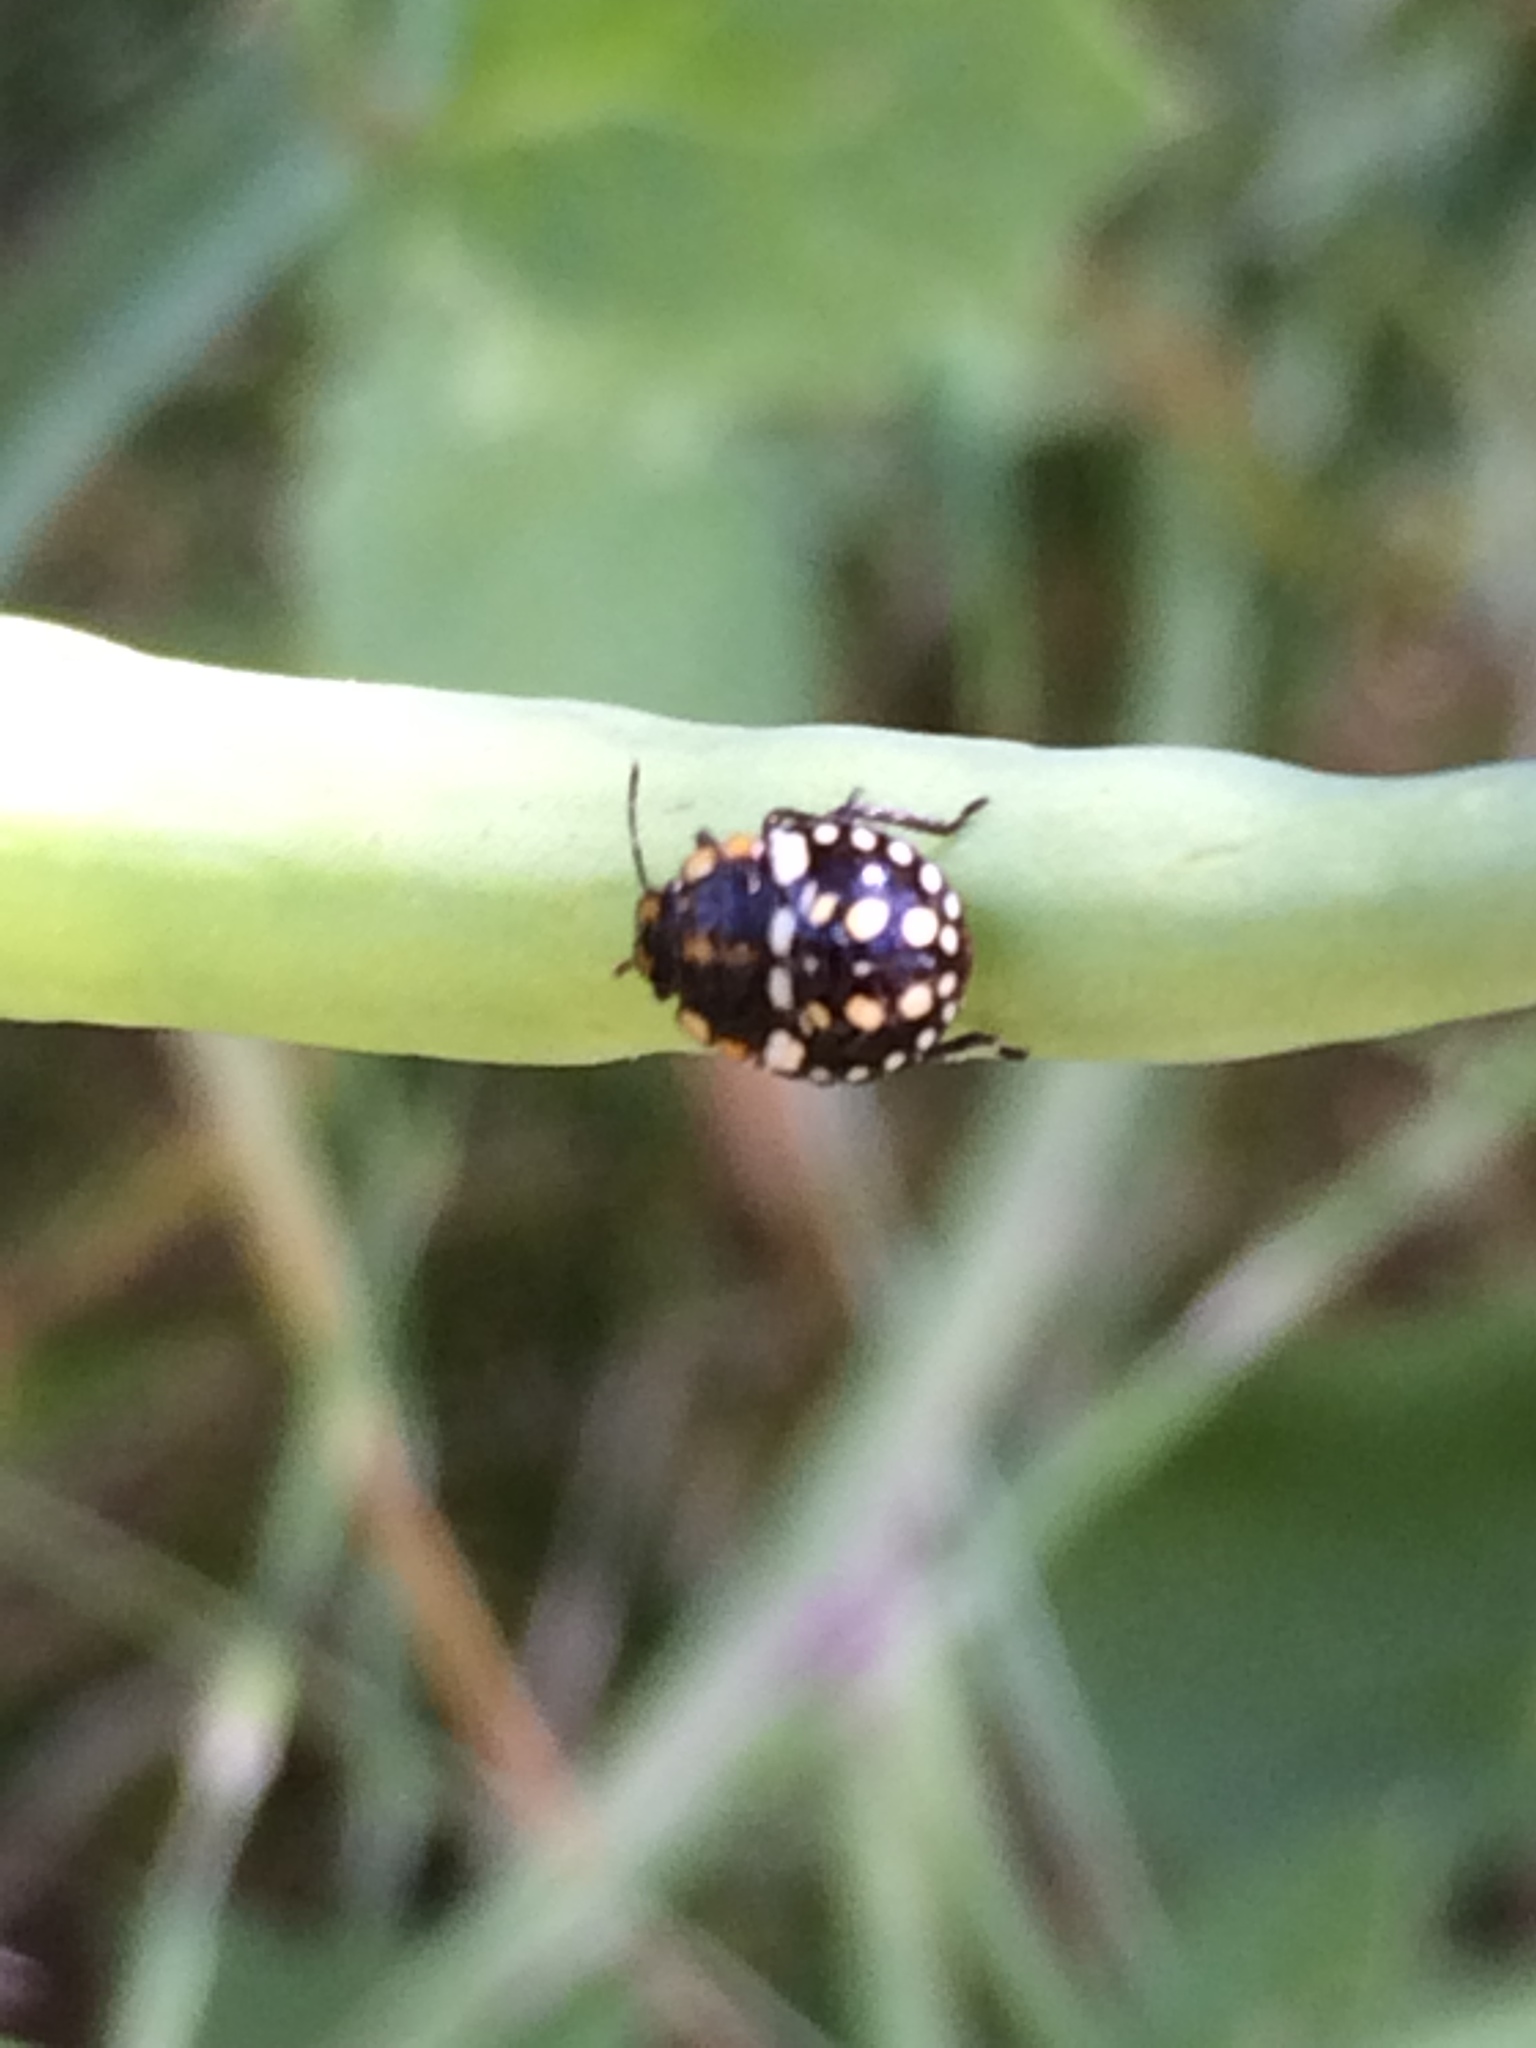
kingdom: Animalia
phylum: Arthropoda
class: Insecta
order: Hemiptera
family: Pentatomidae
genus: Nezara
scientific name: Nezara viridula
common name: Southern green stink bug
